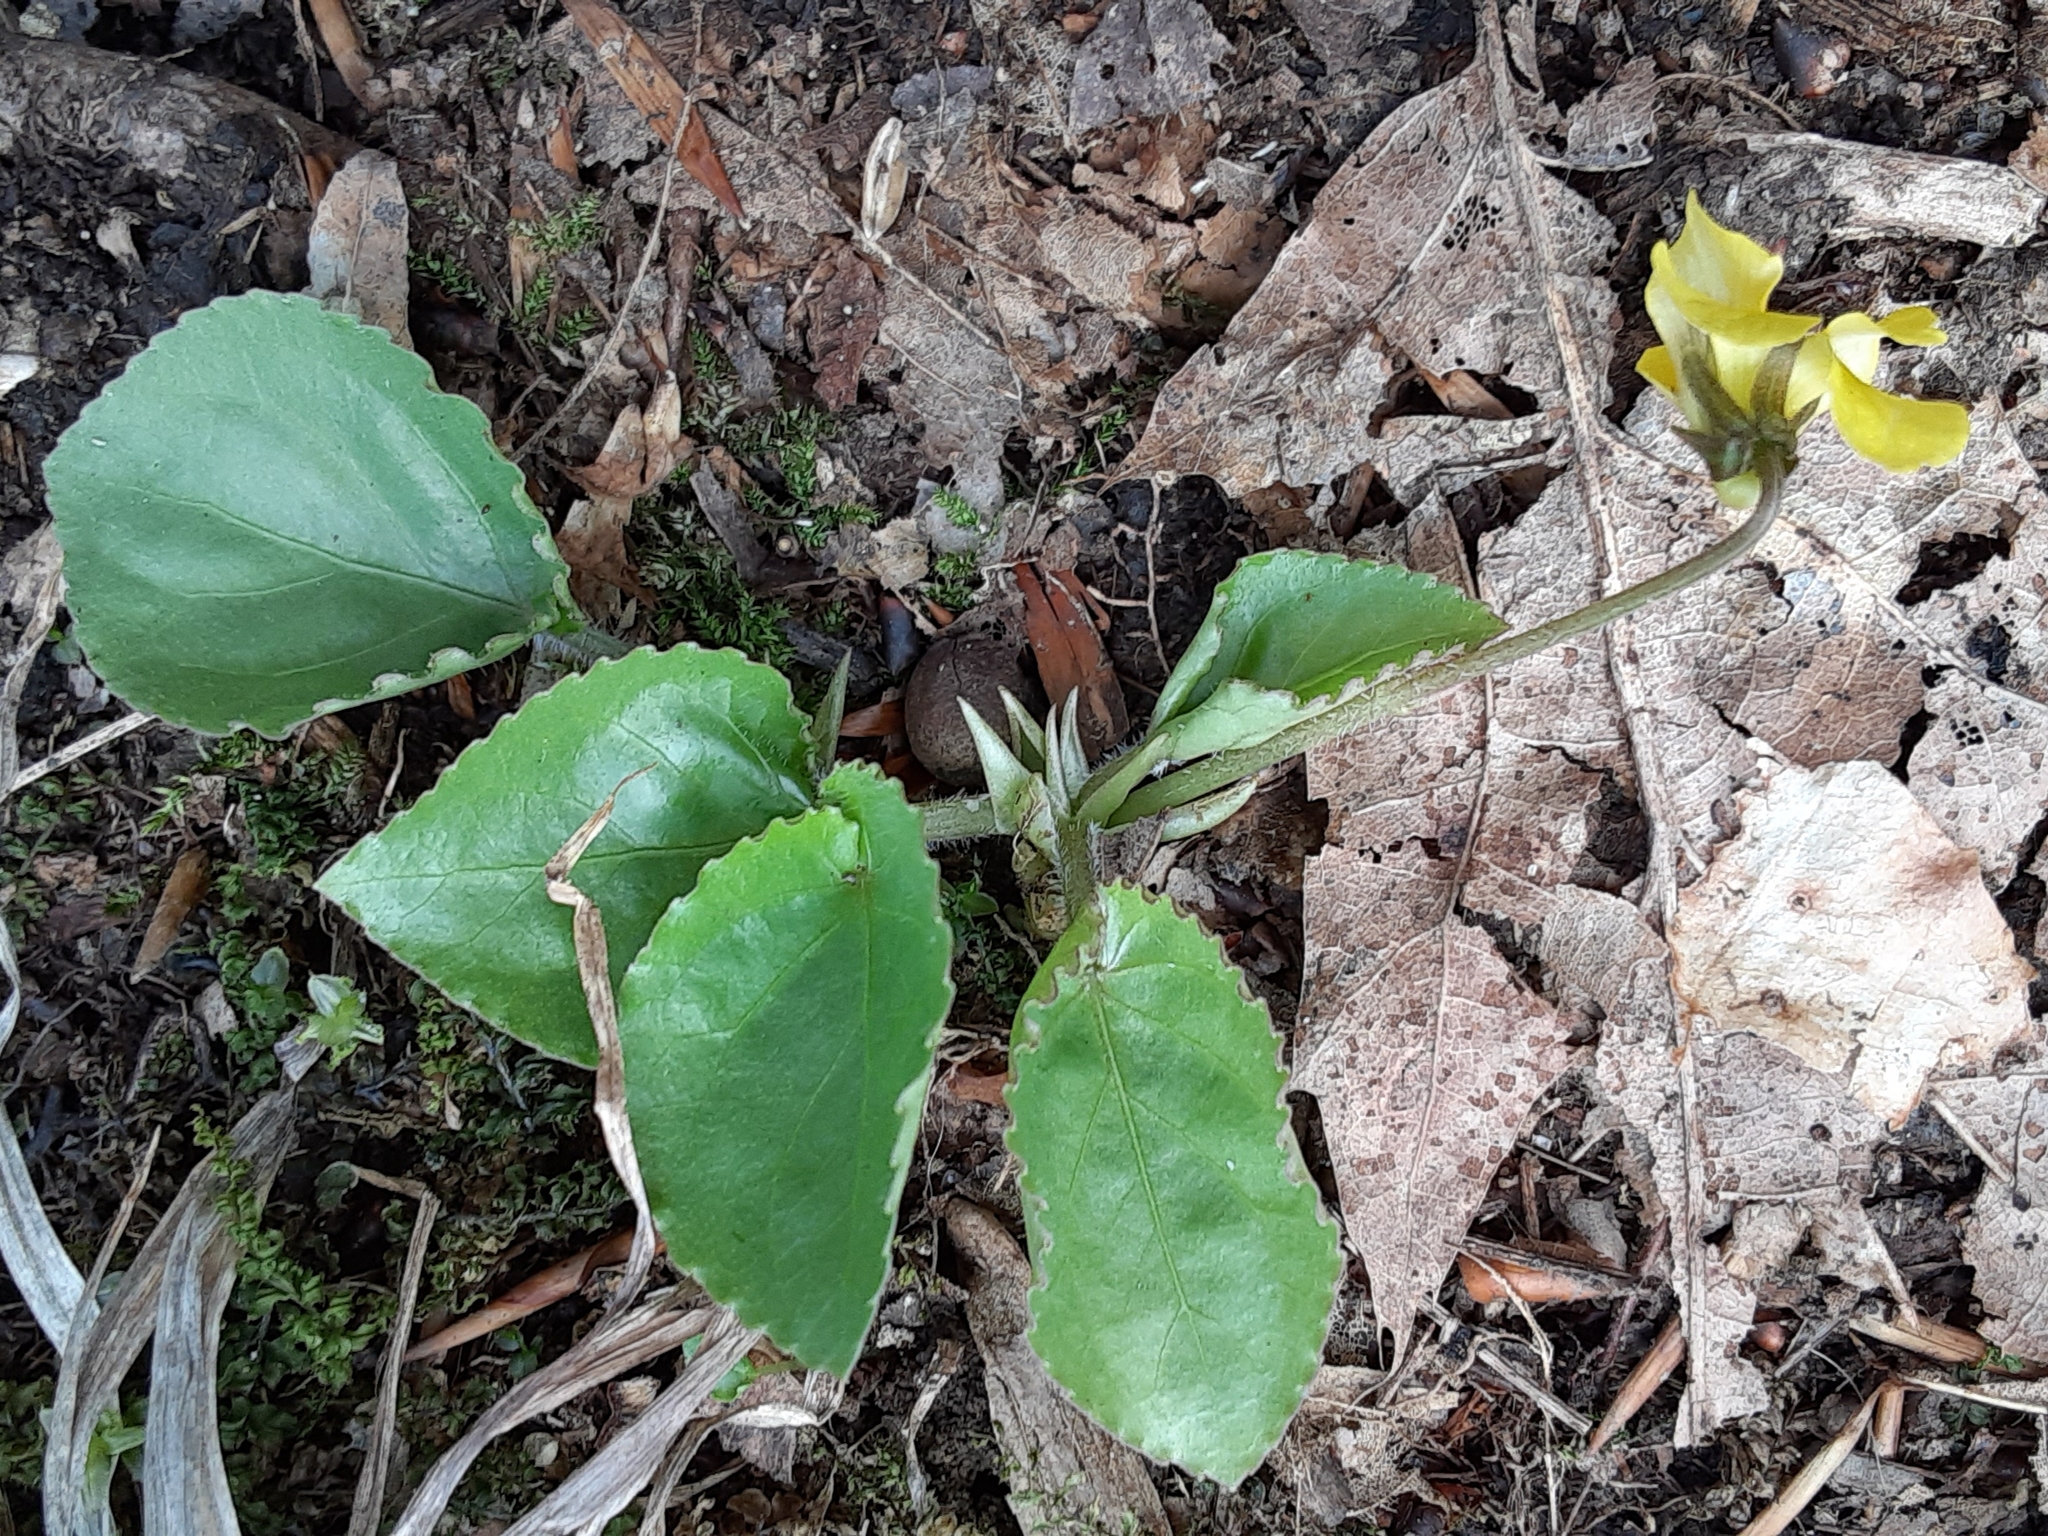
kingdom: Plantae
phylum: Tracheophyta
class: Magnoliopsida
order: Malpighiales
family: Violaceae
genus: Viola
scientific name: Viola rotundifolia
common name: Early yellow violet
